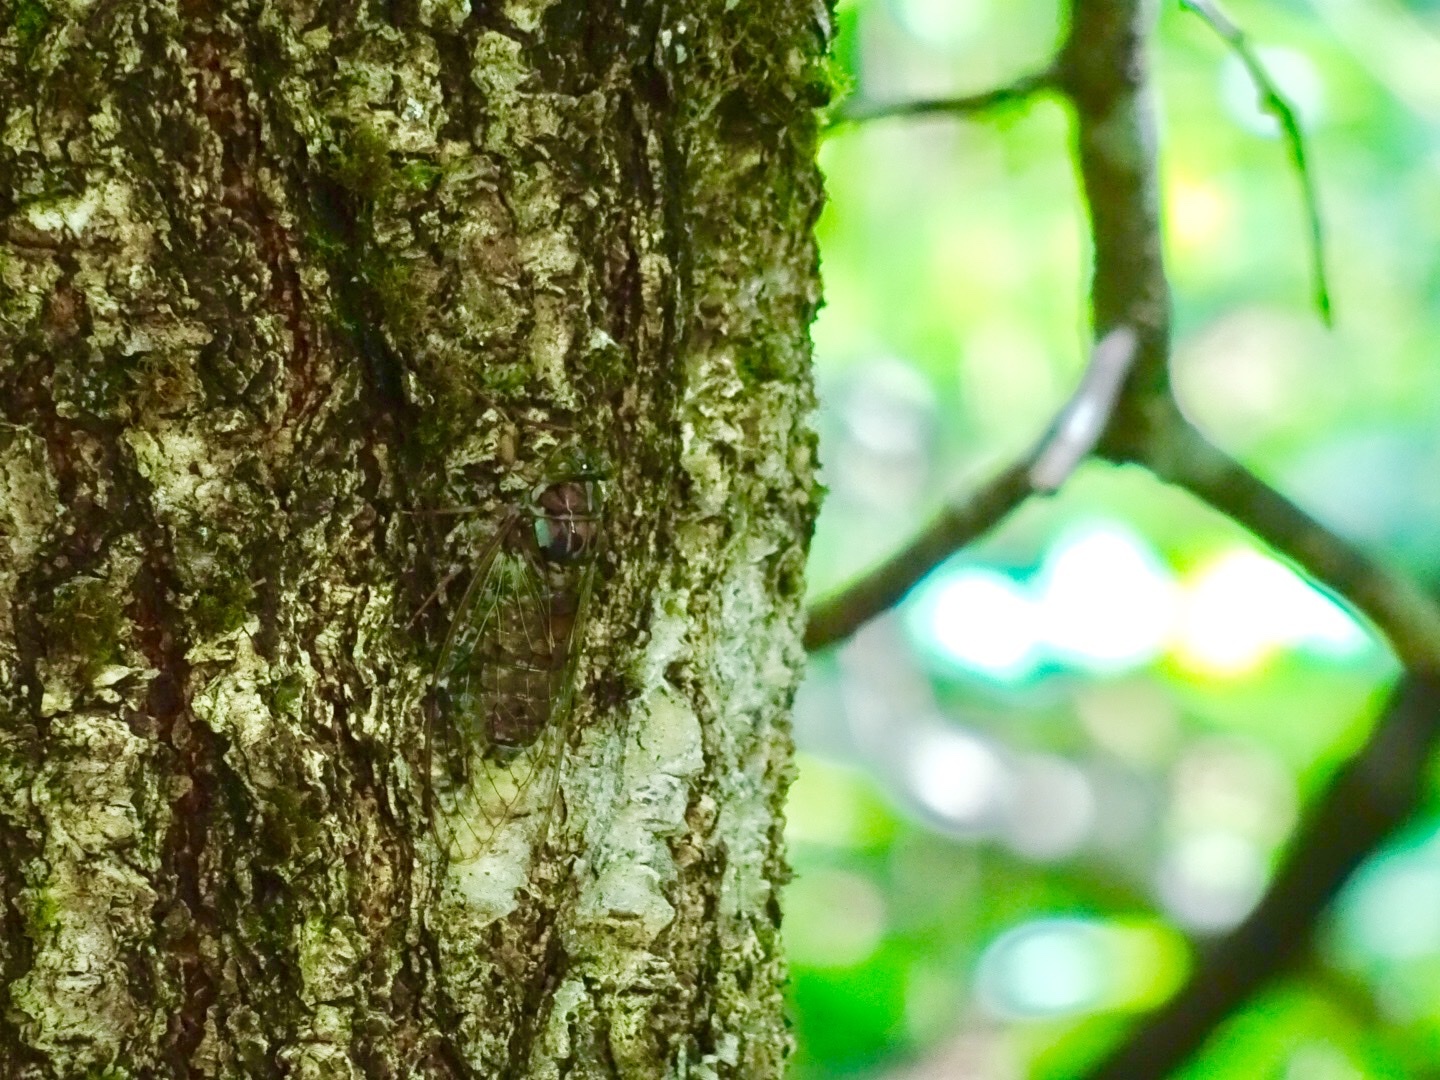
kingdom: Animalia
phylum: Arthropoda
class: Insecta
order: Hemiptera
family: Cicadidae
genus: Tanna
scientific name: Tanna japonensis
